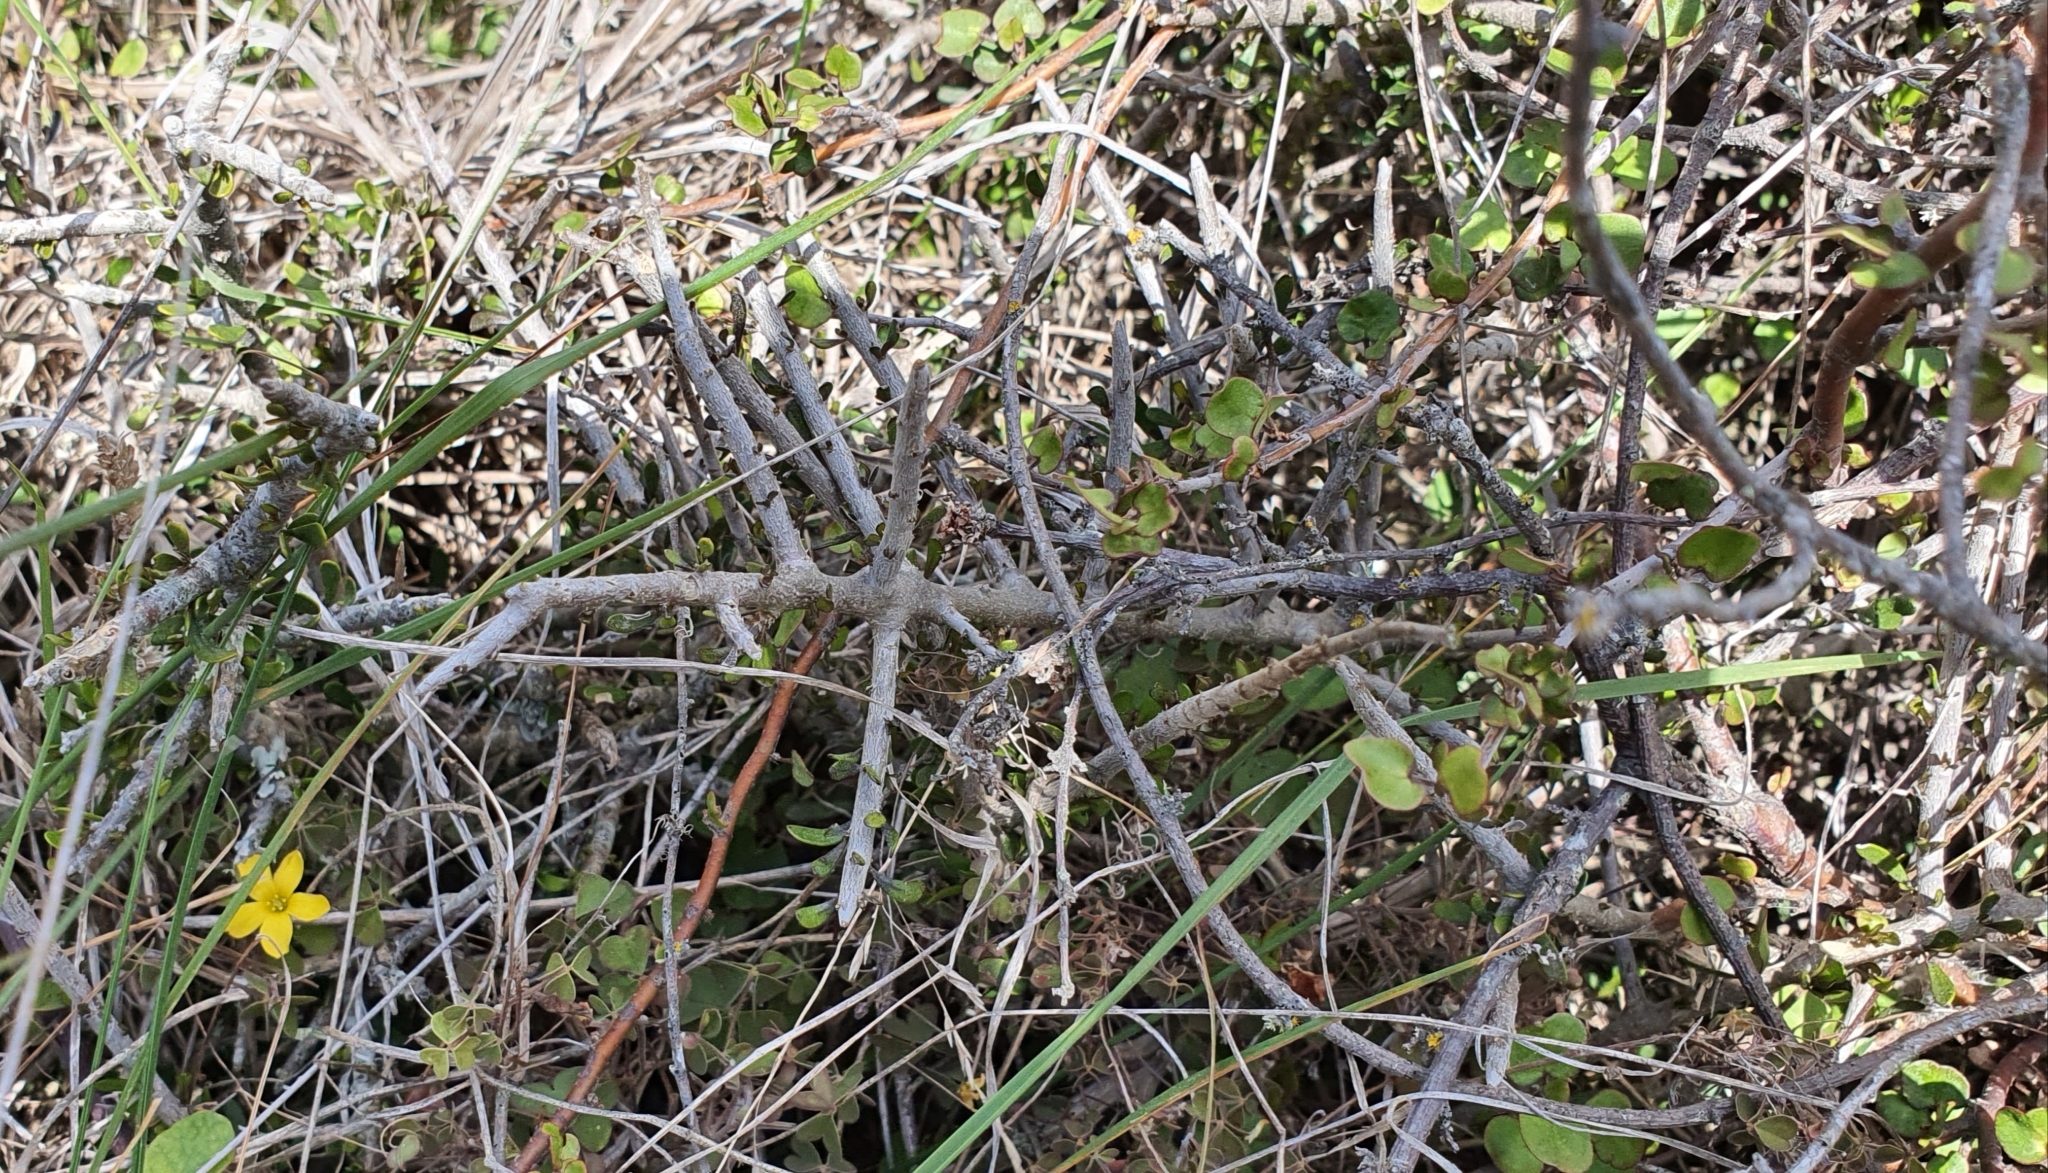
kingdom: Plantae
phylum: Tracheophyta
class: Magnoliopsida
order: Caryophyllales
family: Polygonaceae
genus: Muehlenbeckia
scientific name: Muehlenbeckia complexa
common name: Wireplant
